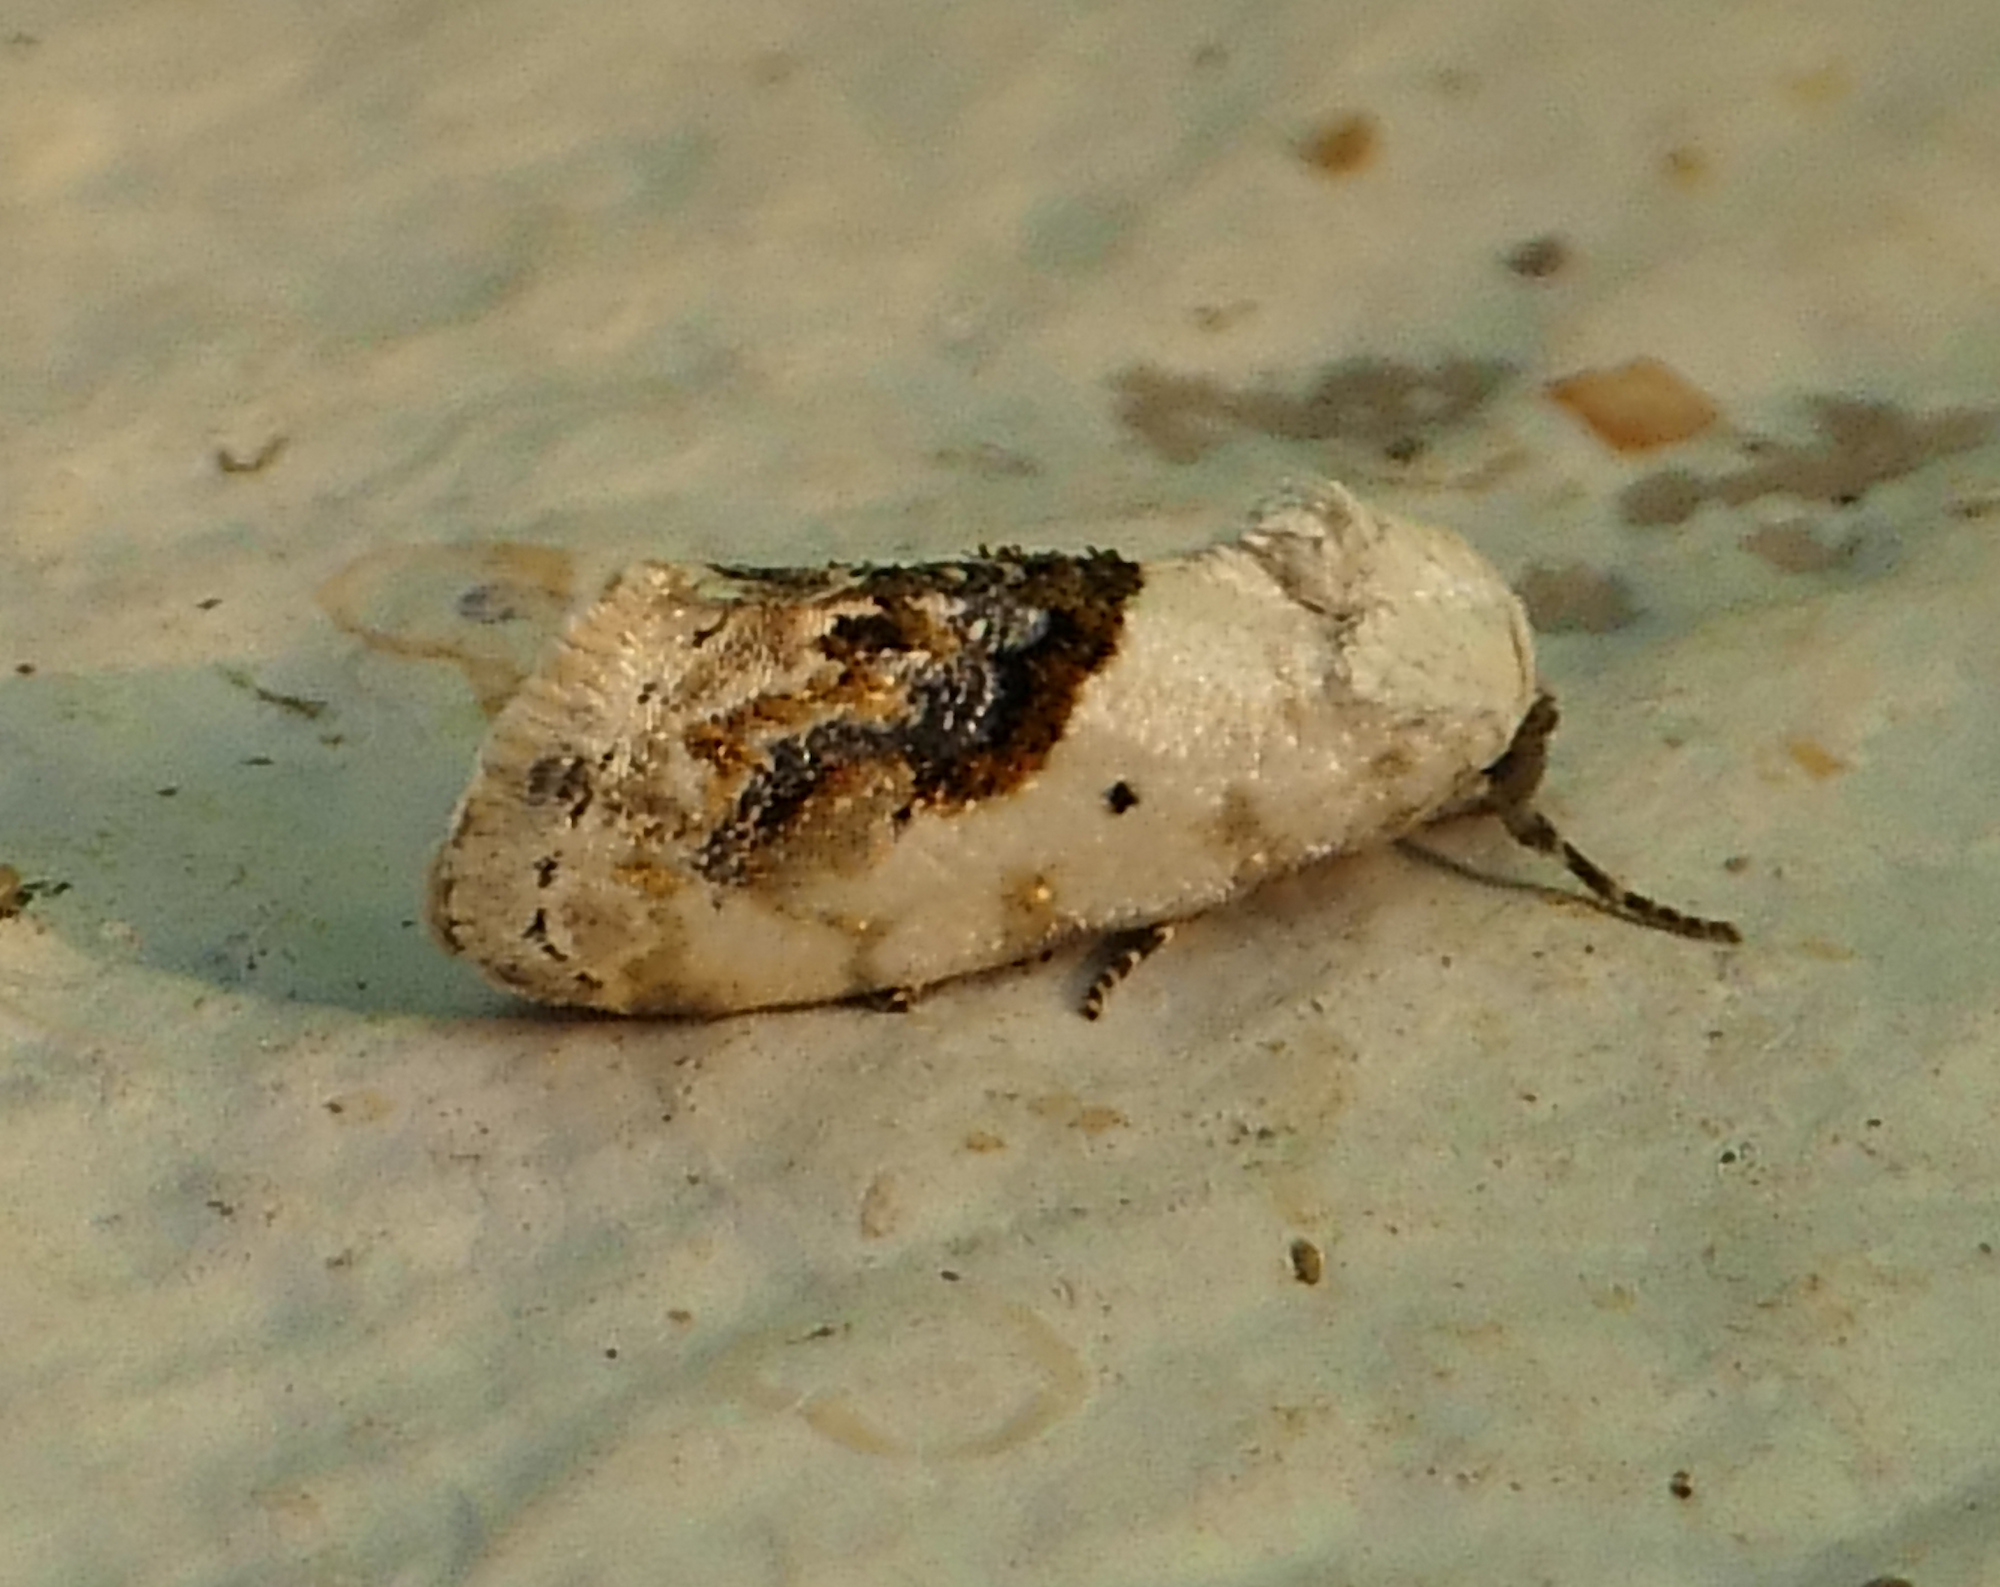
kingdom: Animalia
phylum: Arthropoda
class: Insecta
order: Lepidoptera
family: Noctuidae
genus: Acontia
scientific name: Acontia erastrioides
